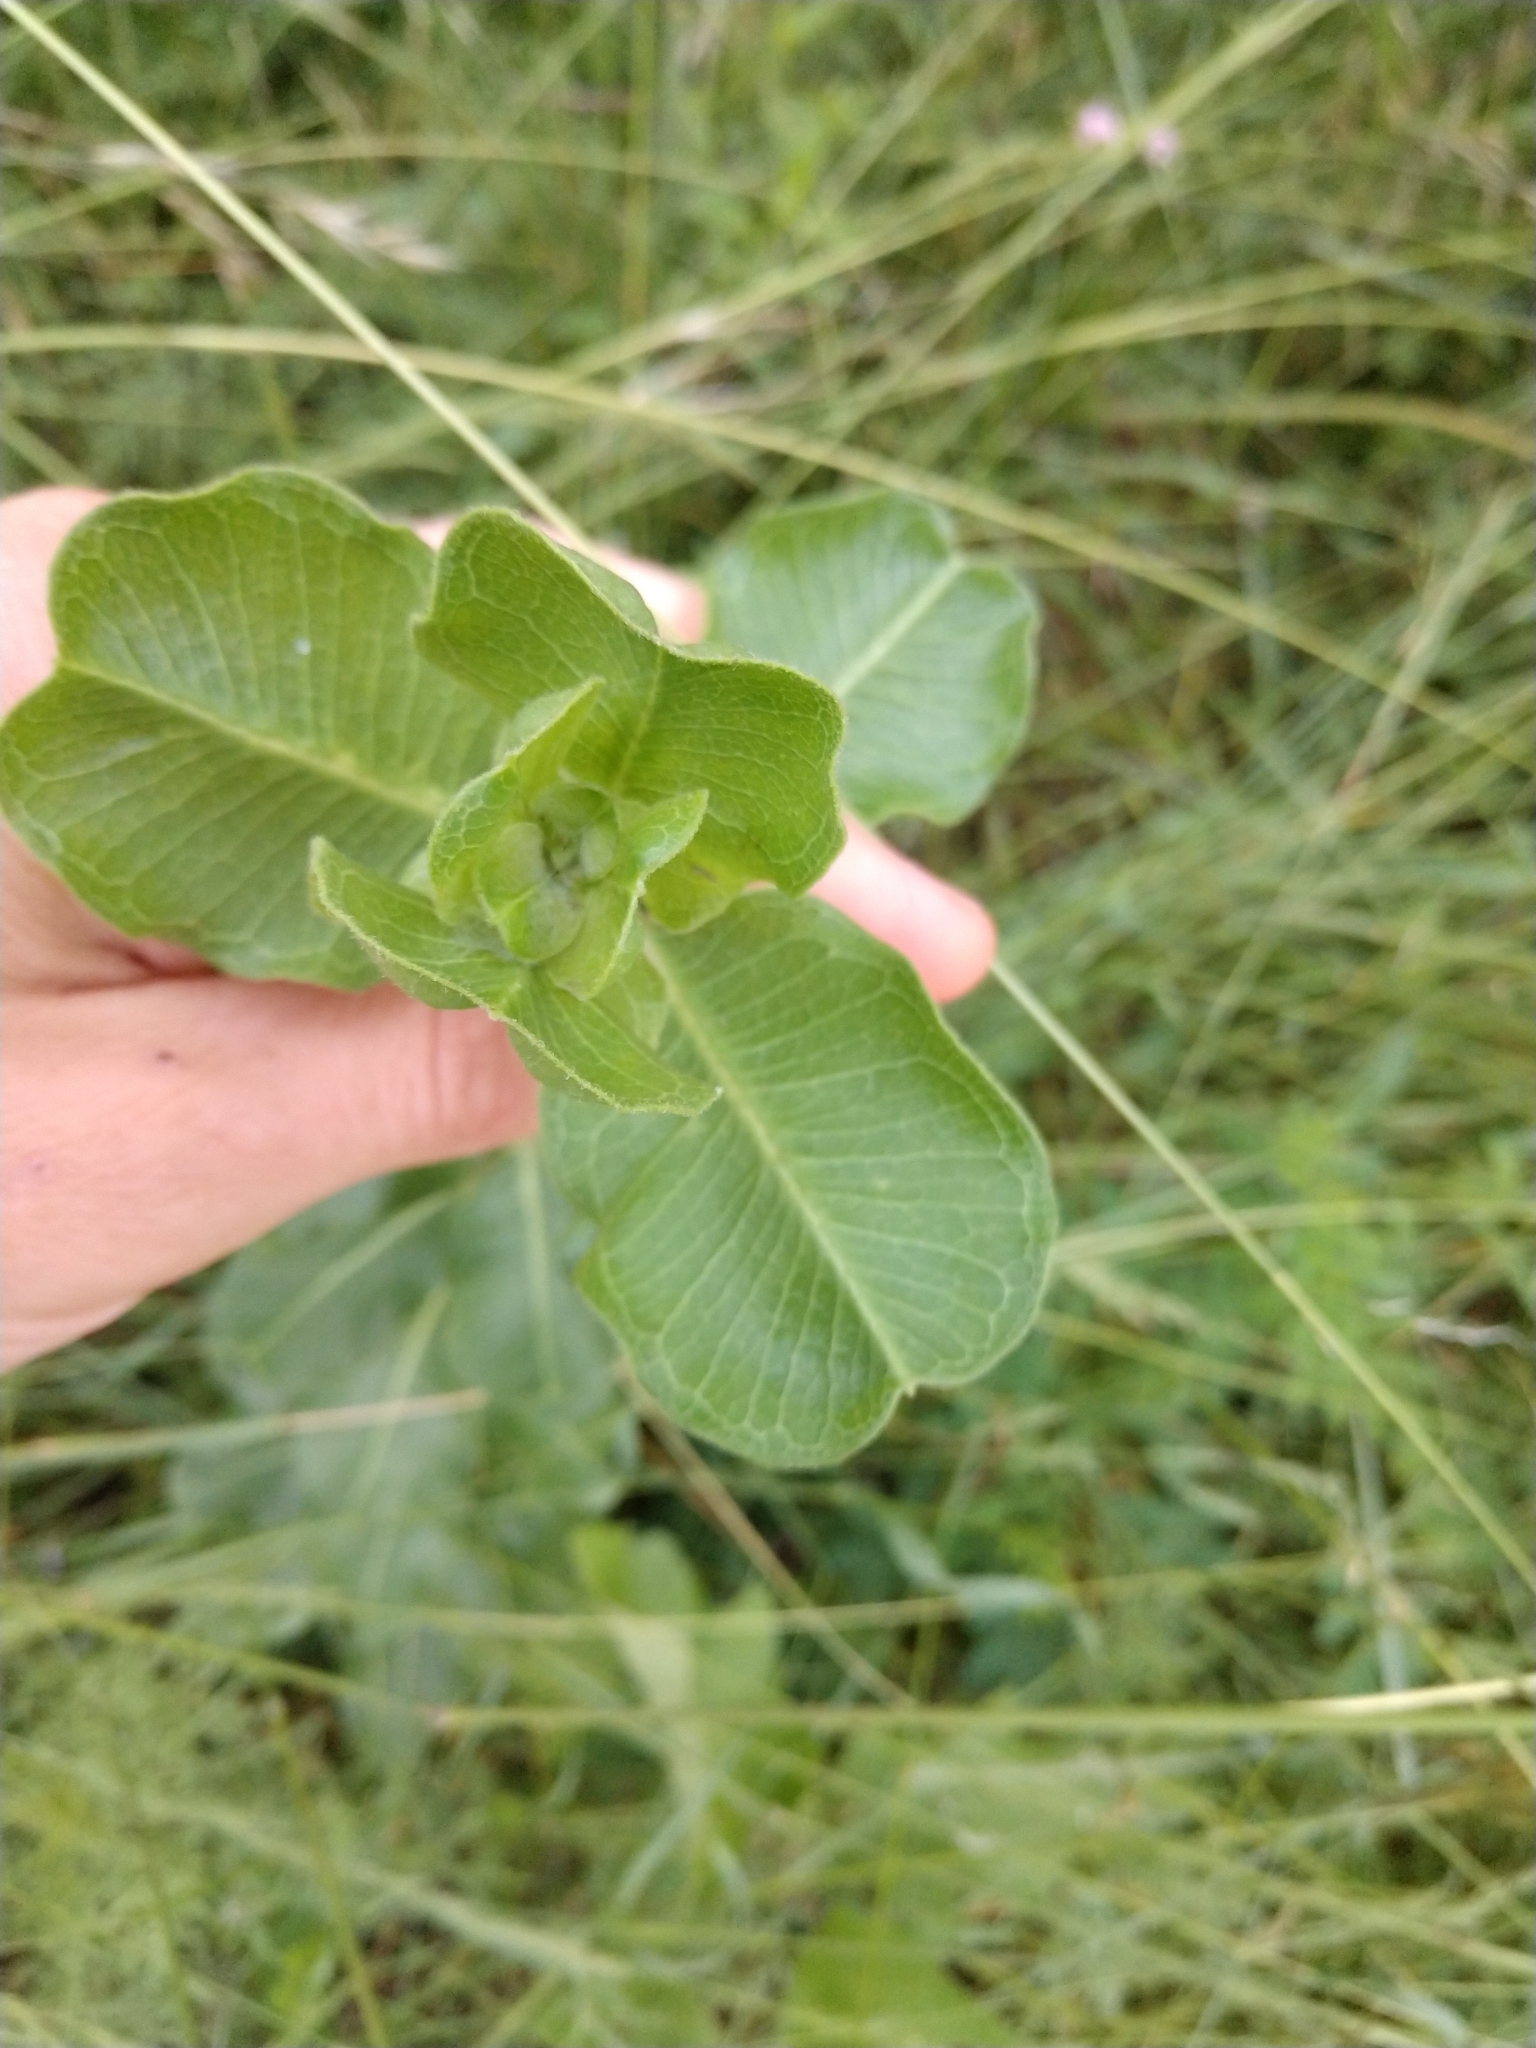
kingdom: Plantae
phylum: Tracheophyta
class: Magnoliopsida
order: Gentianales
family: Apocynaceae
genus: Asclepias
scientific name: Asclepias viridiflora
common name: Green comet milkweed
